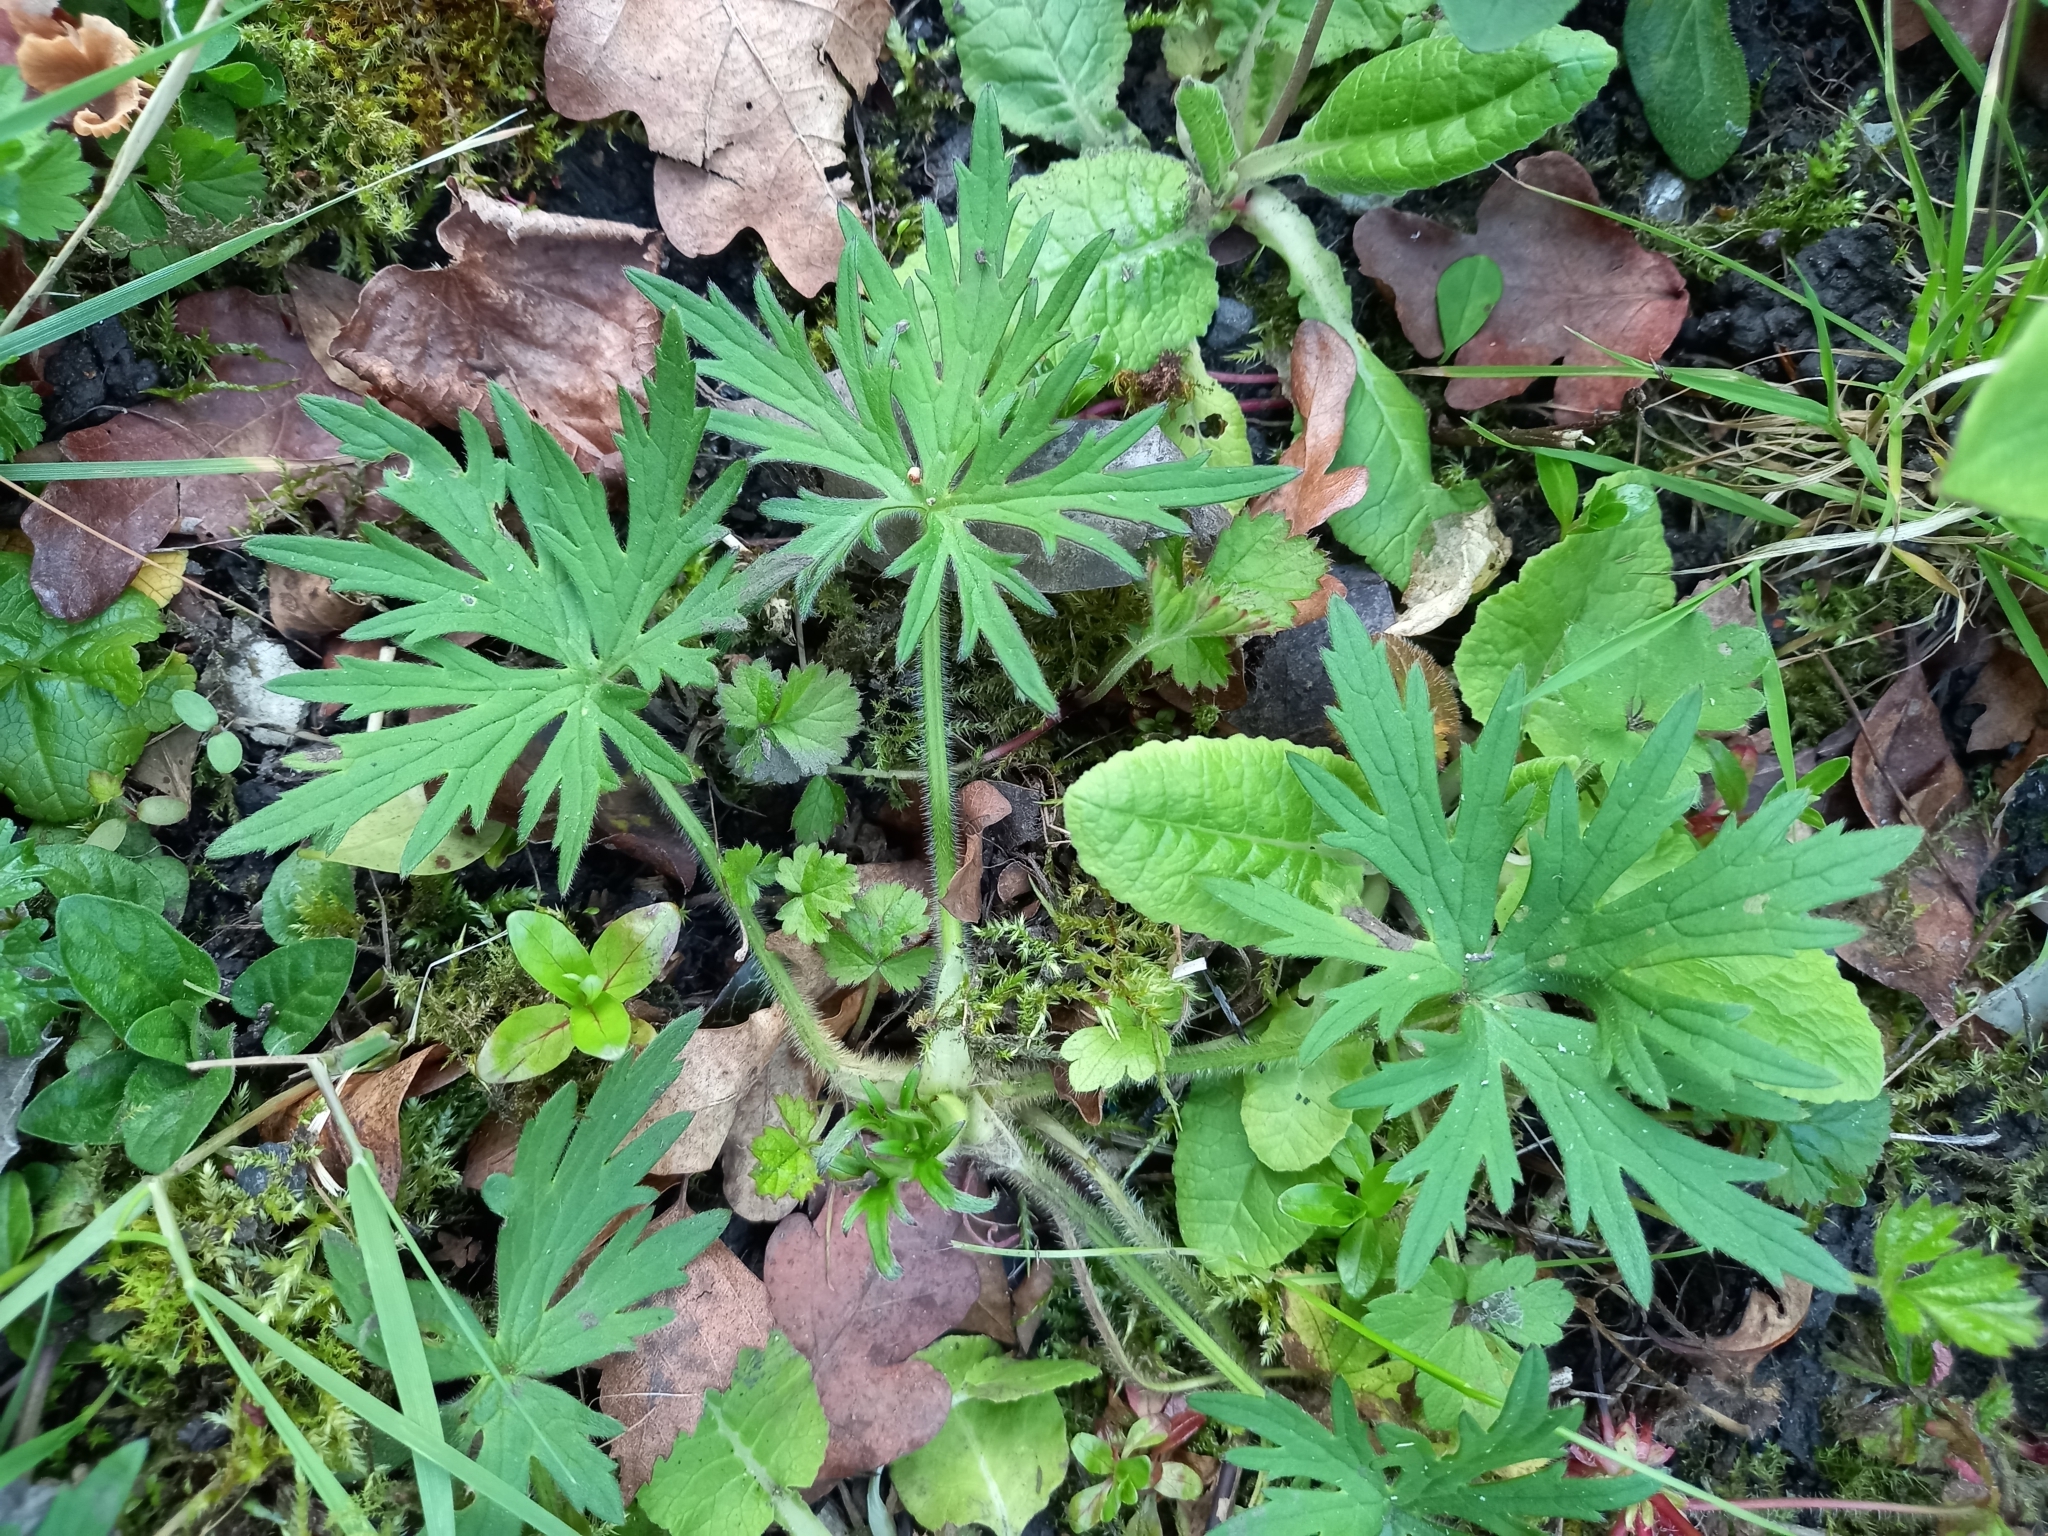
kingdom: Plantae
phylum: Tracheophyta
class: Magnoliopsida
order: Ranunculales
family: Ranunculaceae
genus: Ranunculus
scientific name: Ranunculus acris
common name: Meadow buttercup
